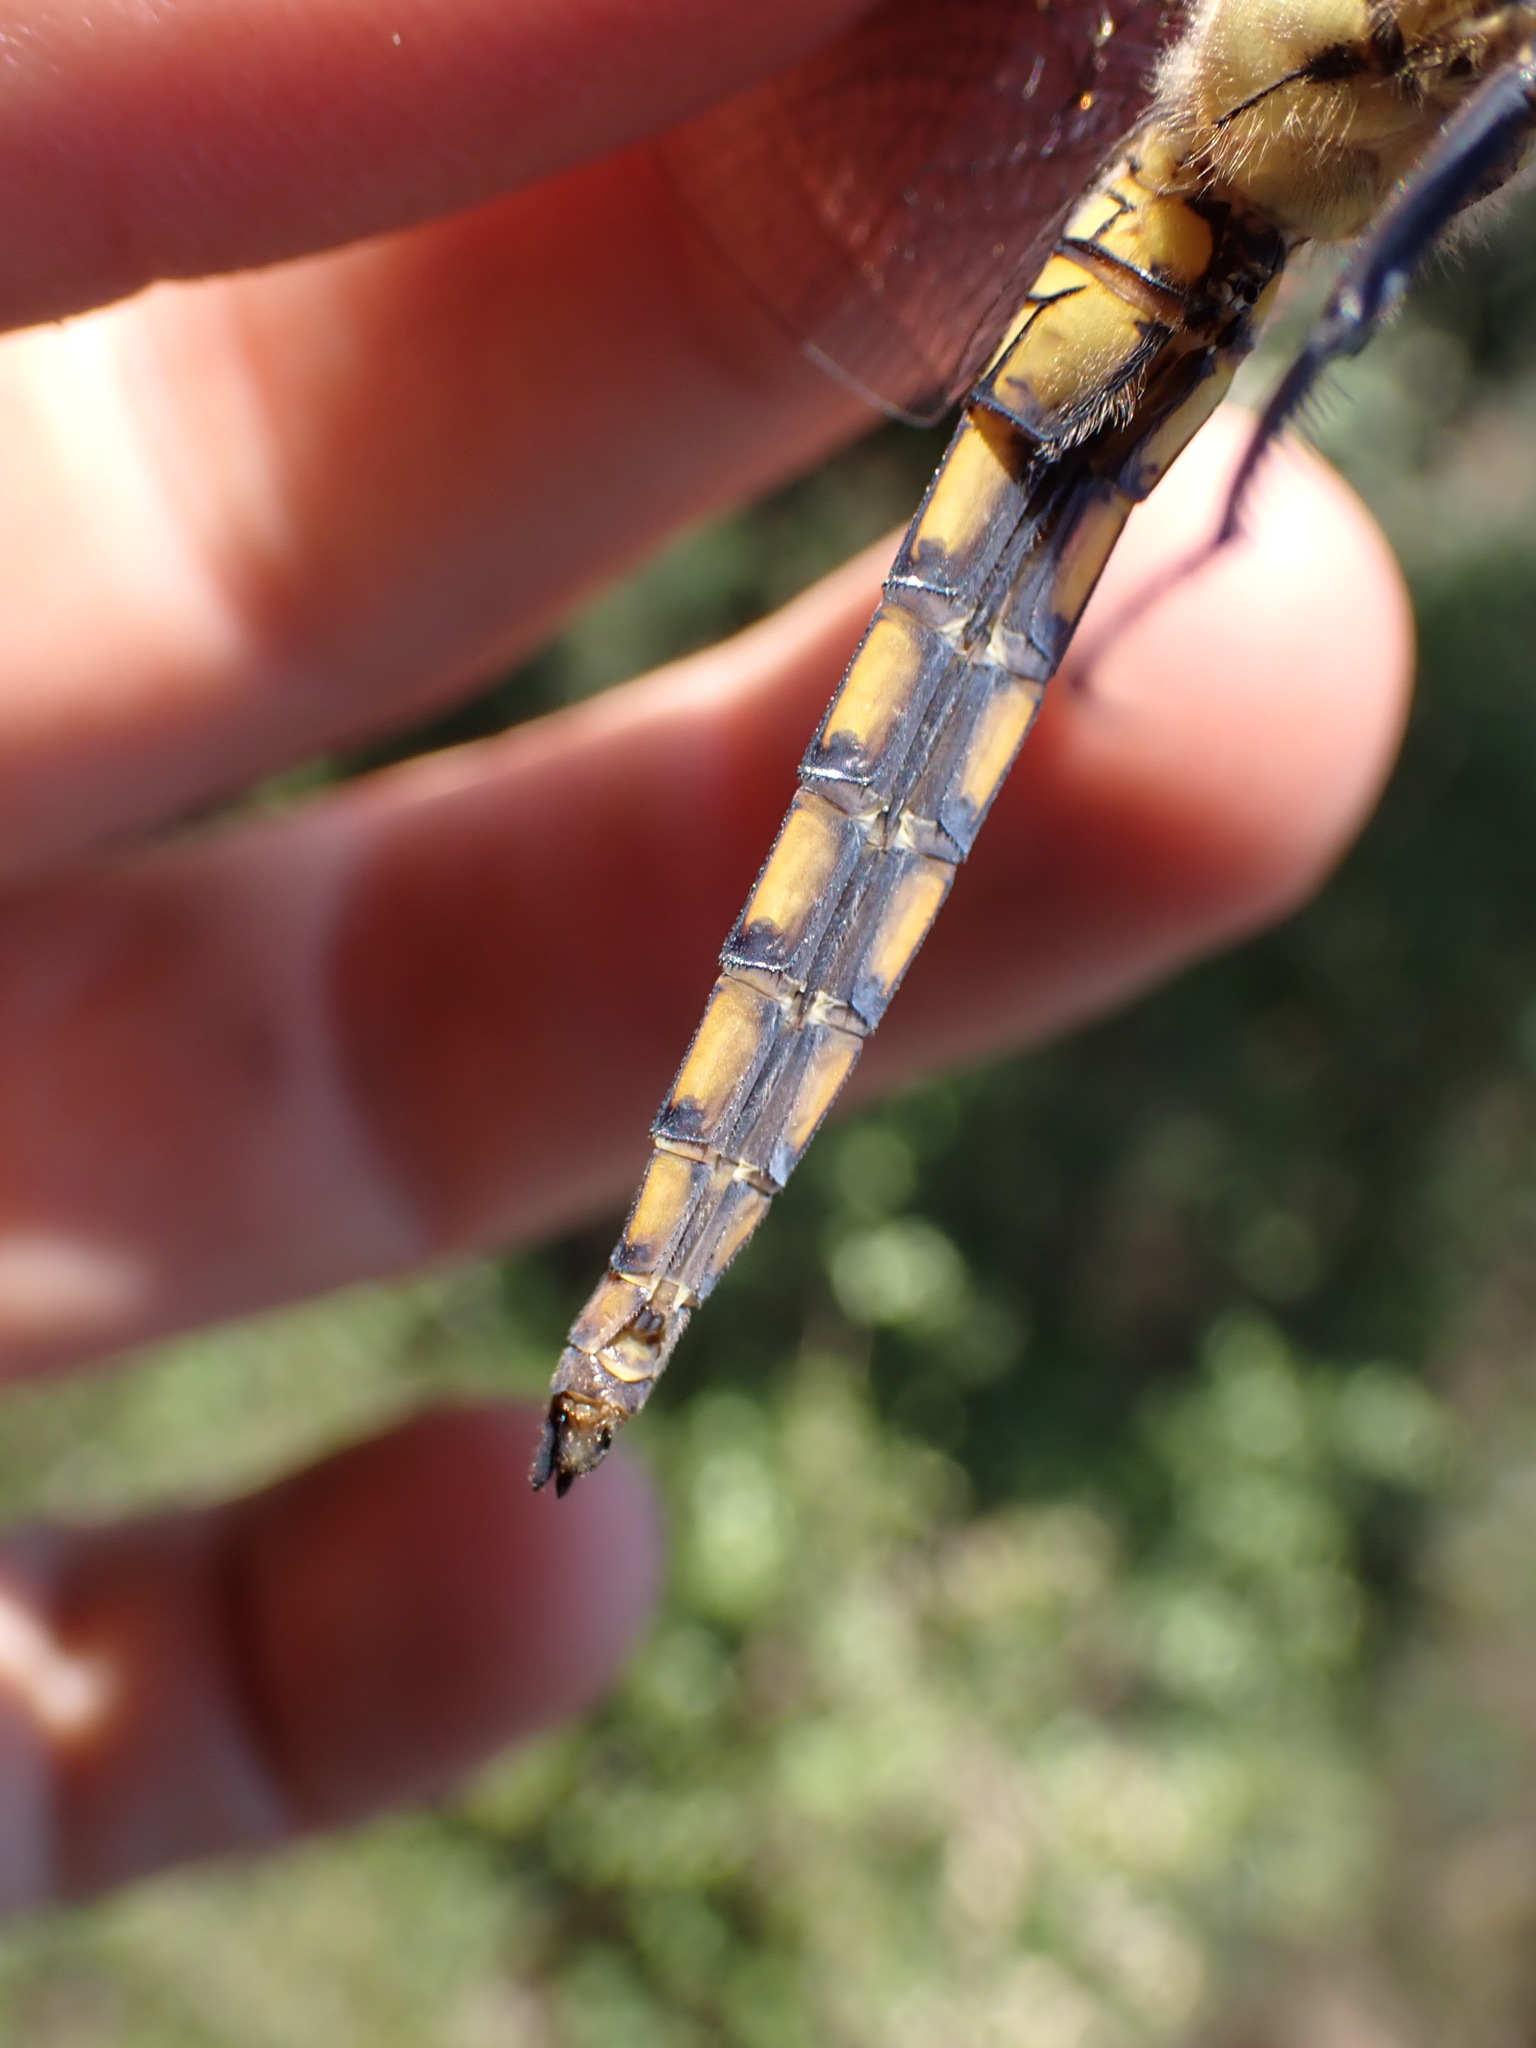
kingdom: Animalia
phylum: Arthropoda
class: Insecta
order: Odonata
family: Libellulidae
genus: Orthetrum
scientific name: Orthetrum cancellatum
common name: Black-tailed skimmer
